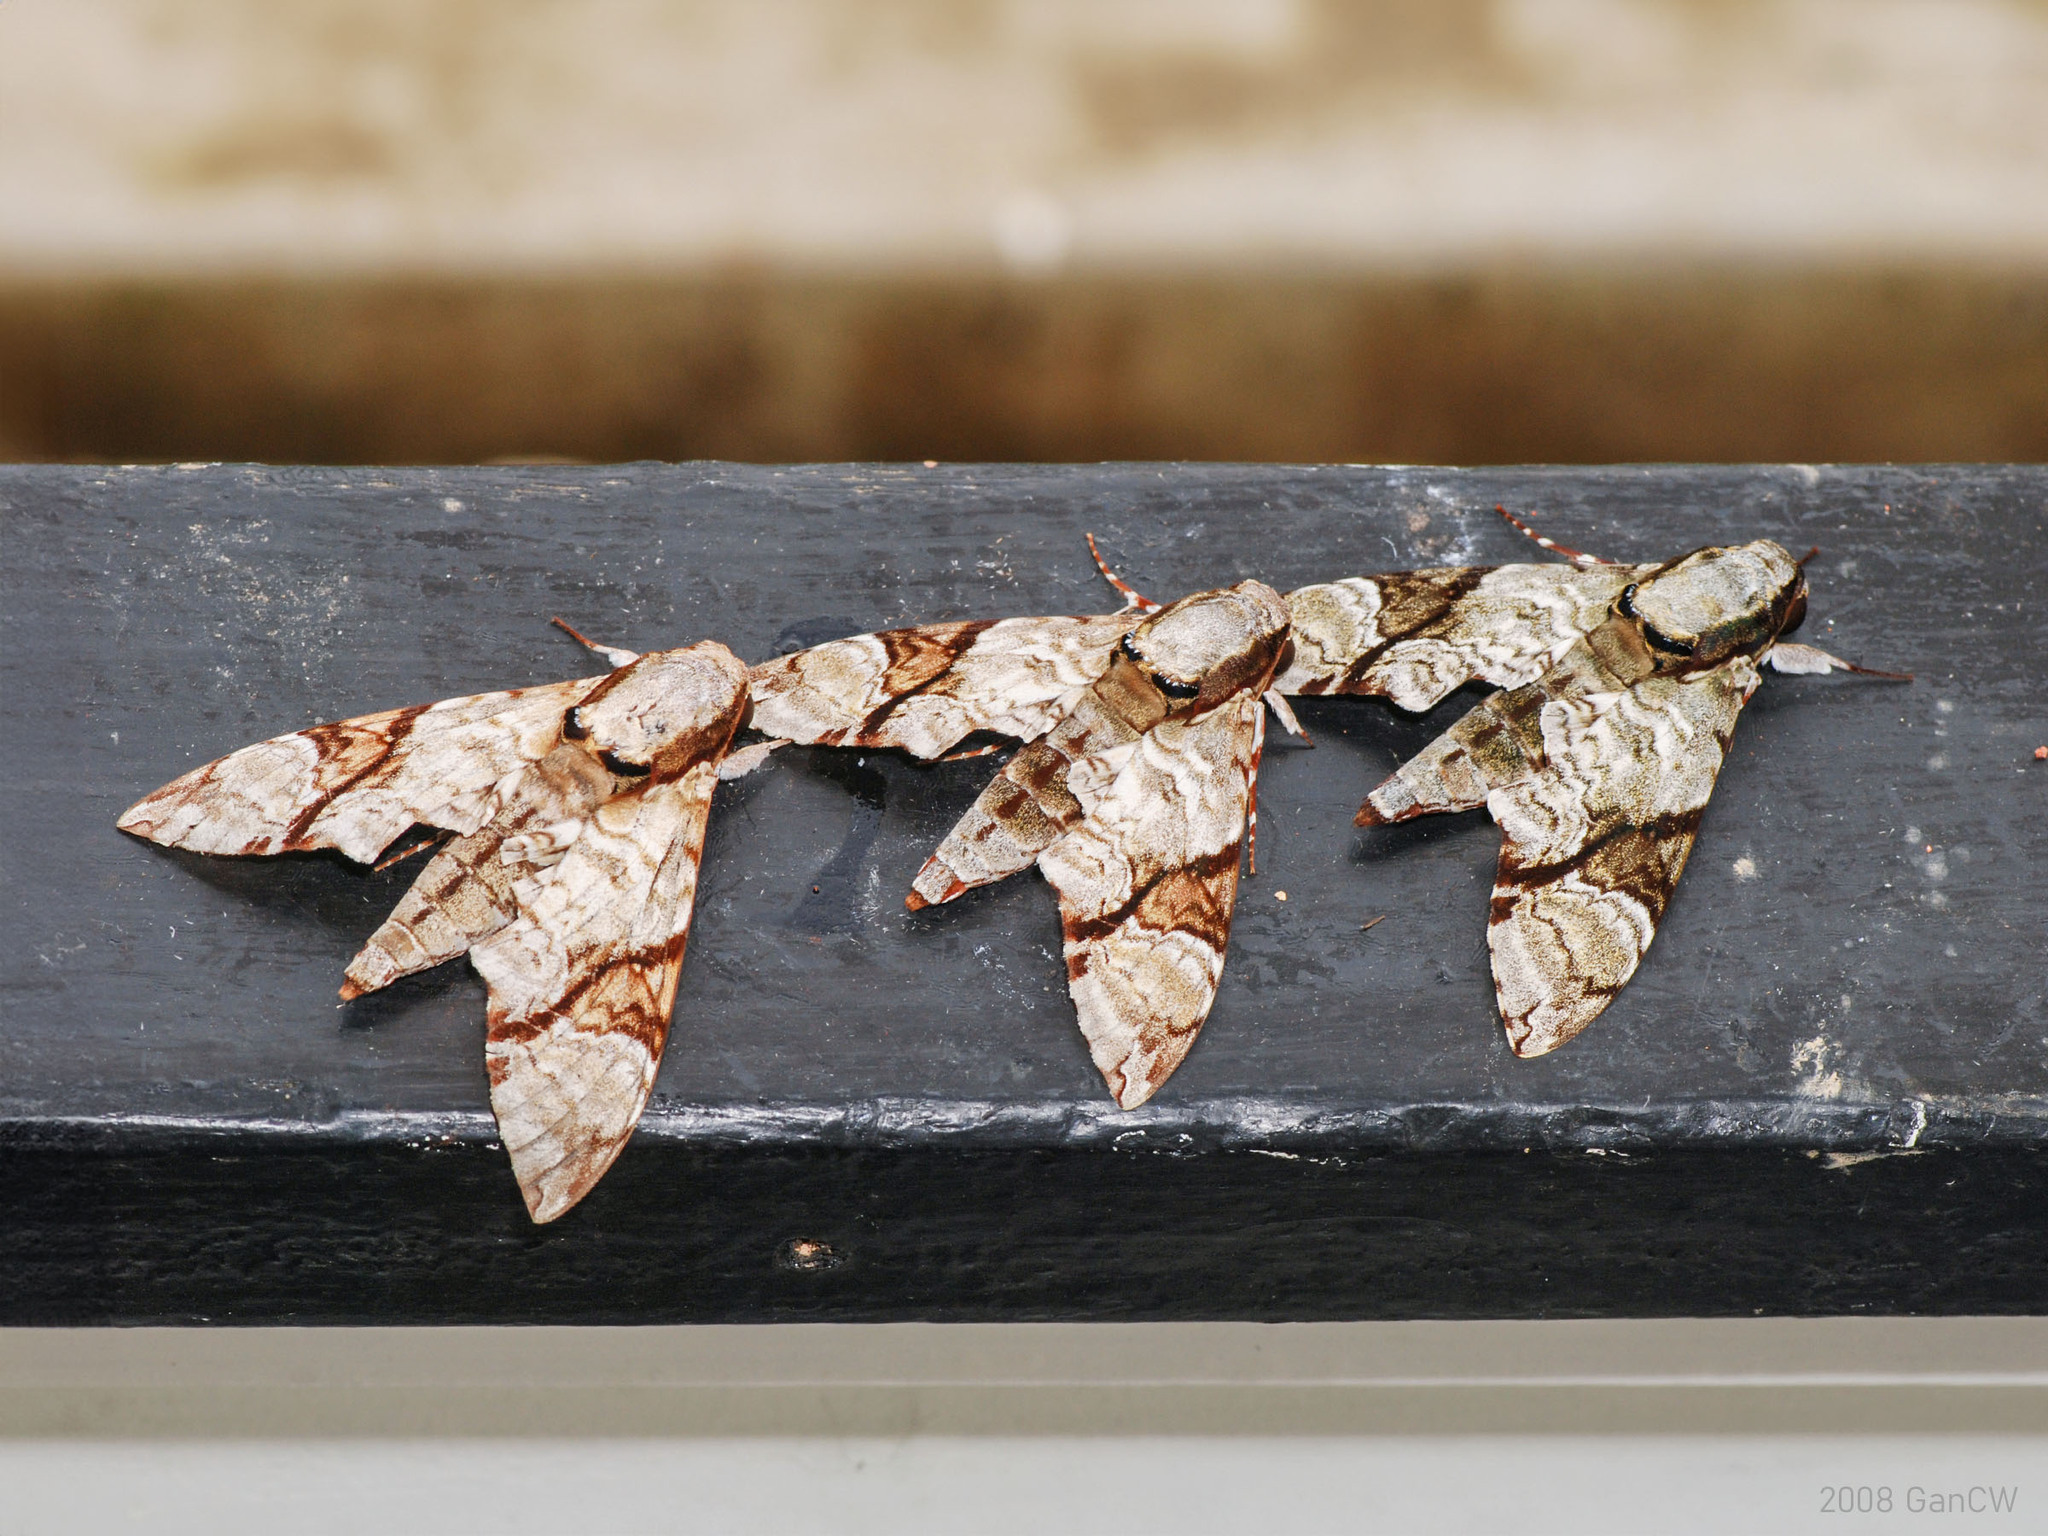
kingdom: Animalia
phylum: Arthropoda
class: Insecta
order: Lepidoptera
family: Sphingidae
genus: Megacorma
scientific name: Megacorma obliqua
